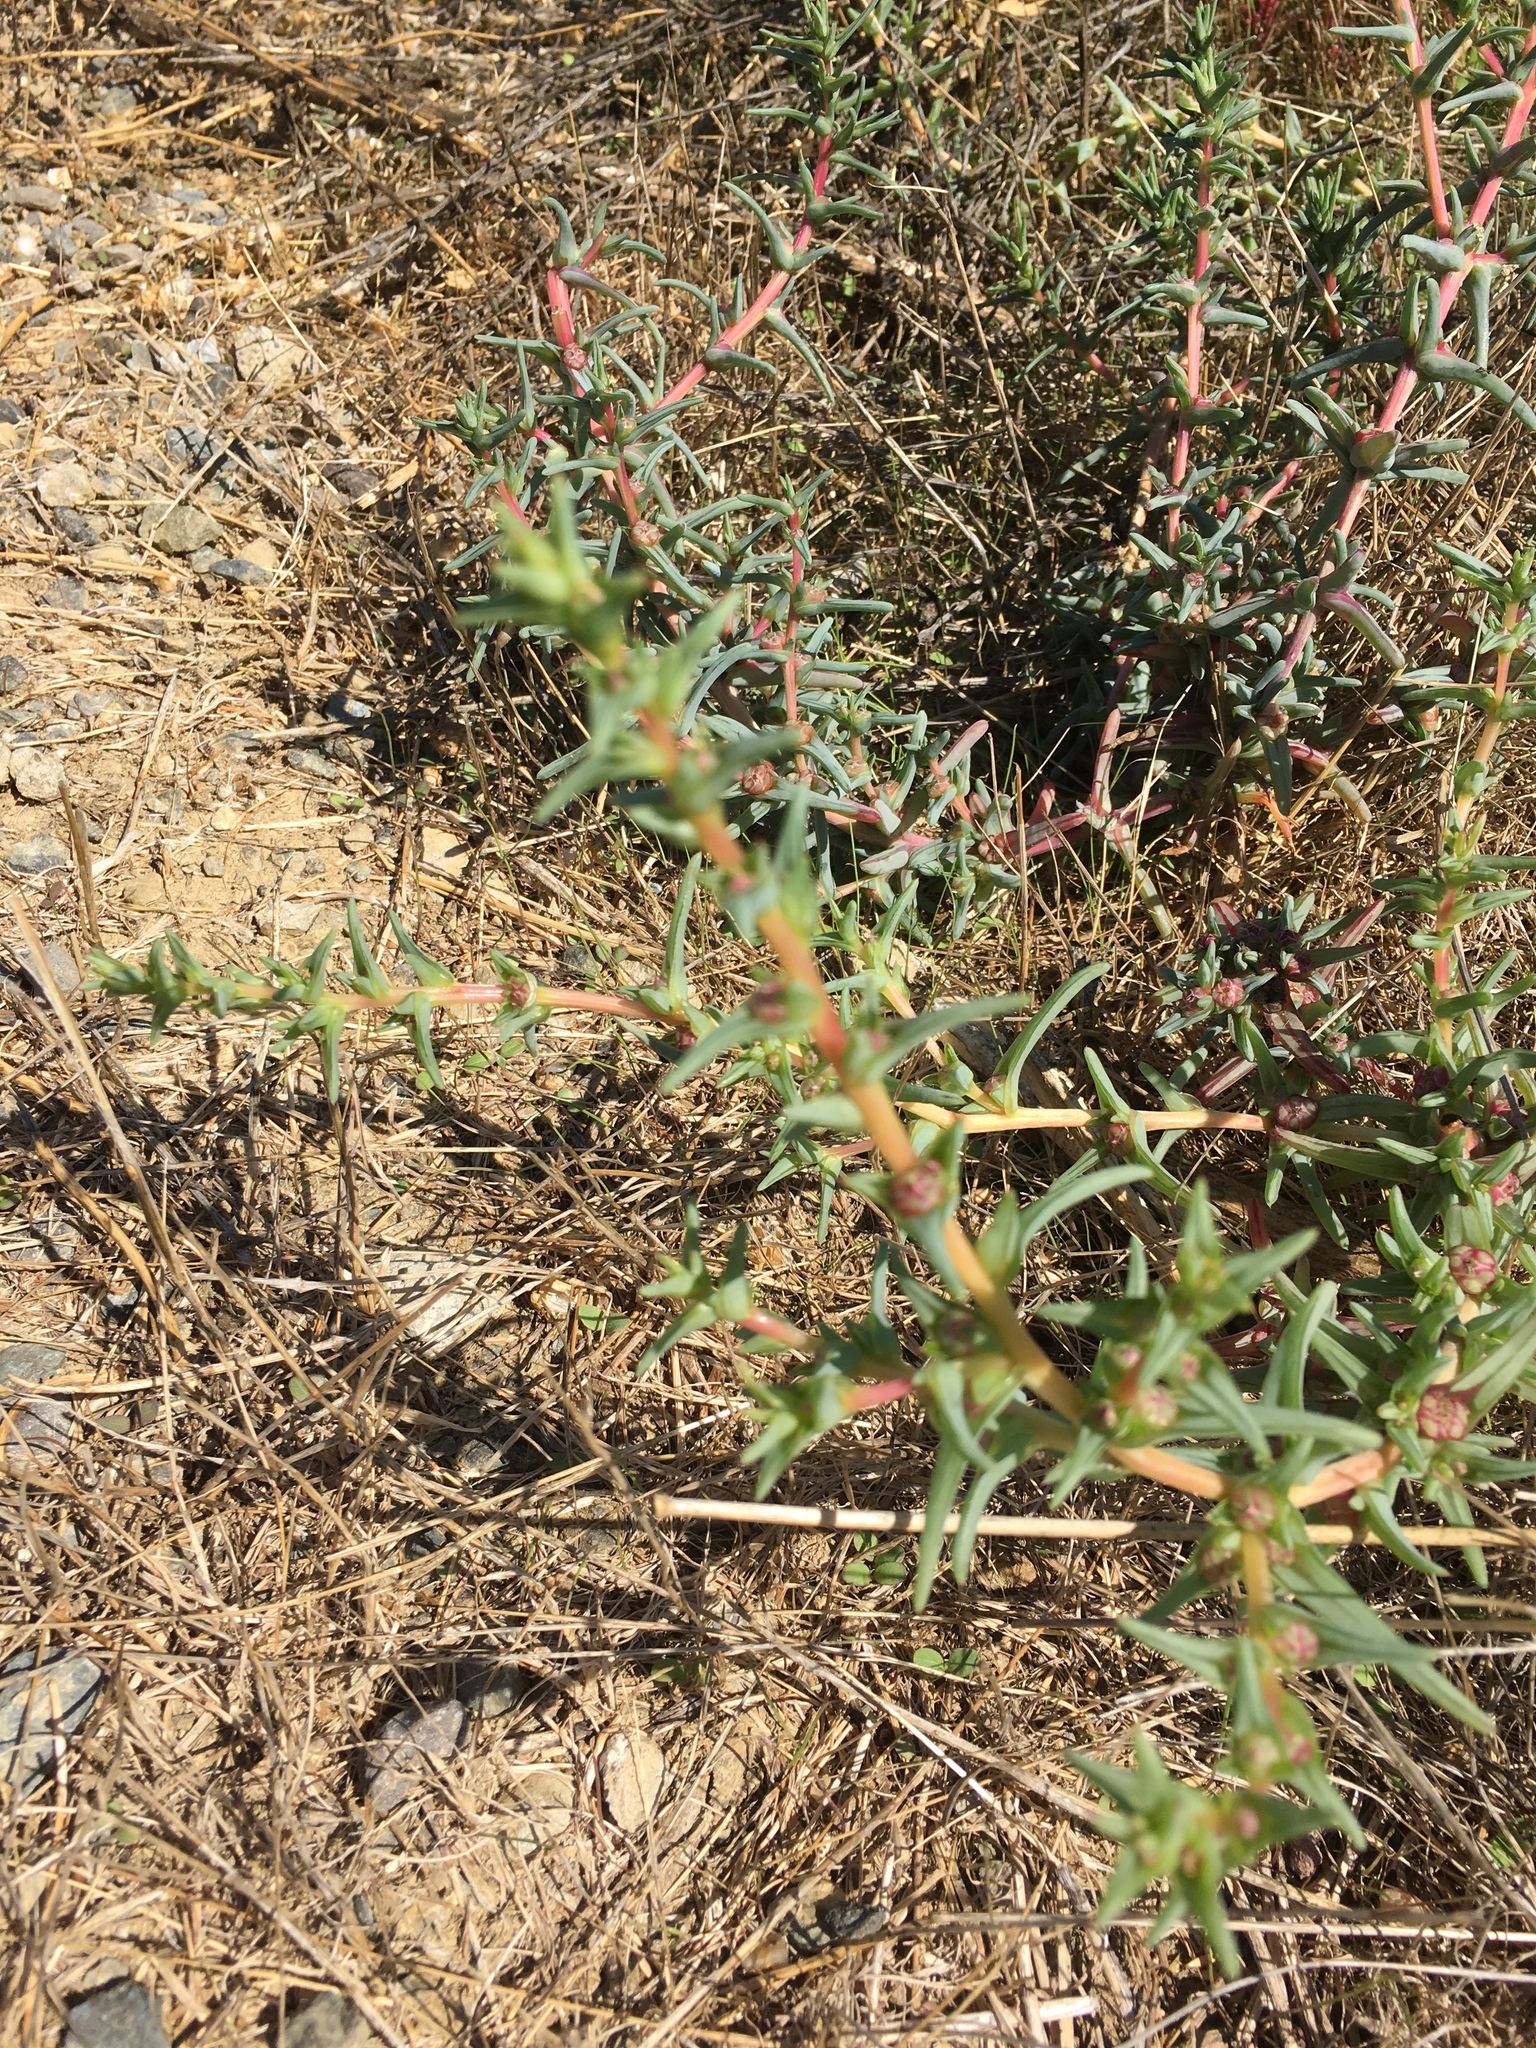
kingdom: Plantae
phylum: Tracheophyta
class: Magnoliopsida
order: Caryophyllales
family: Amaranthaceae
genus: Salsola
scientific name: Salsola soda
